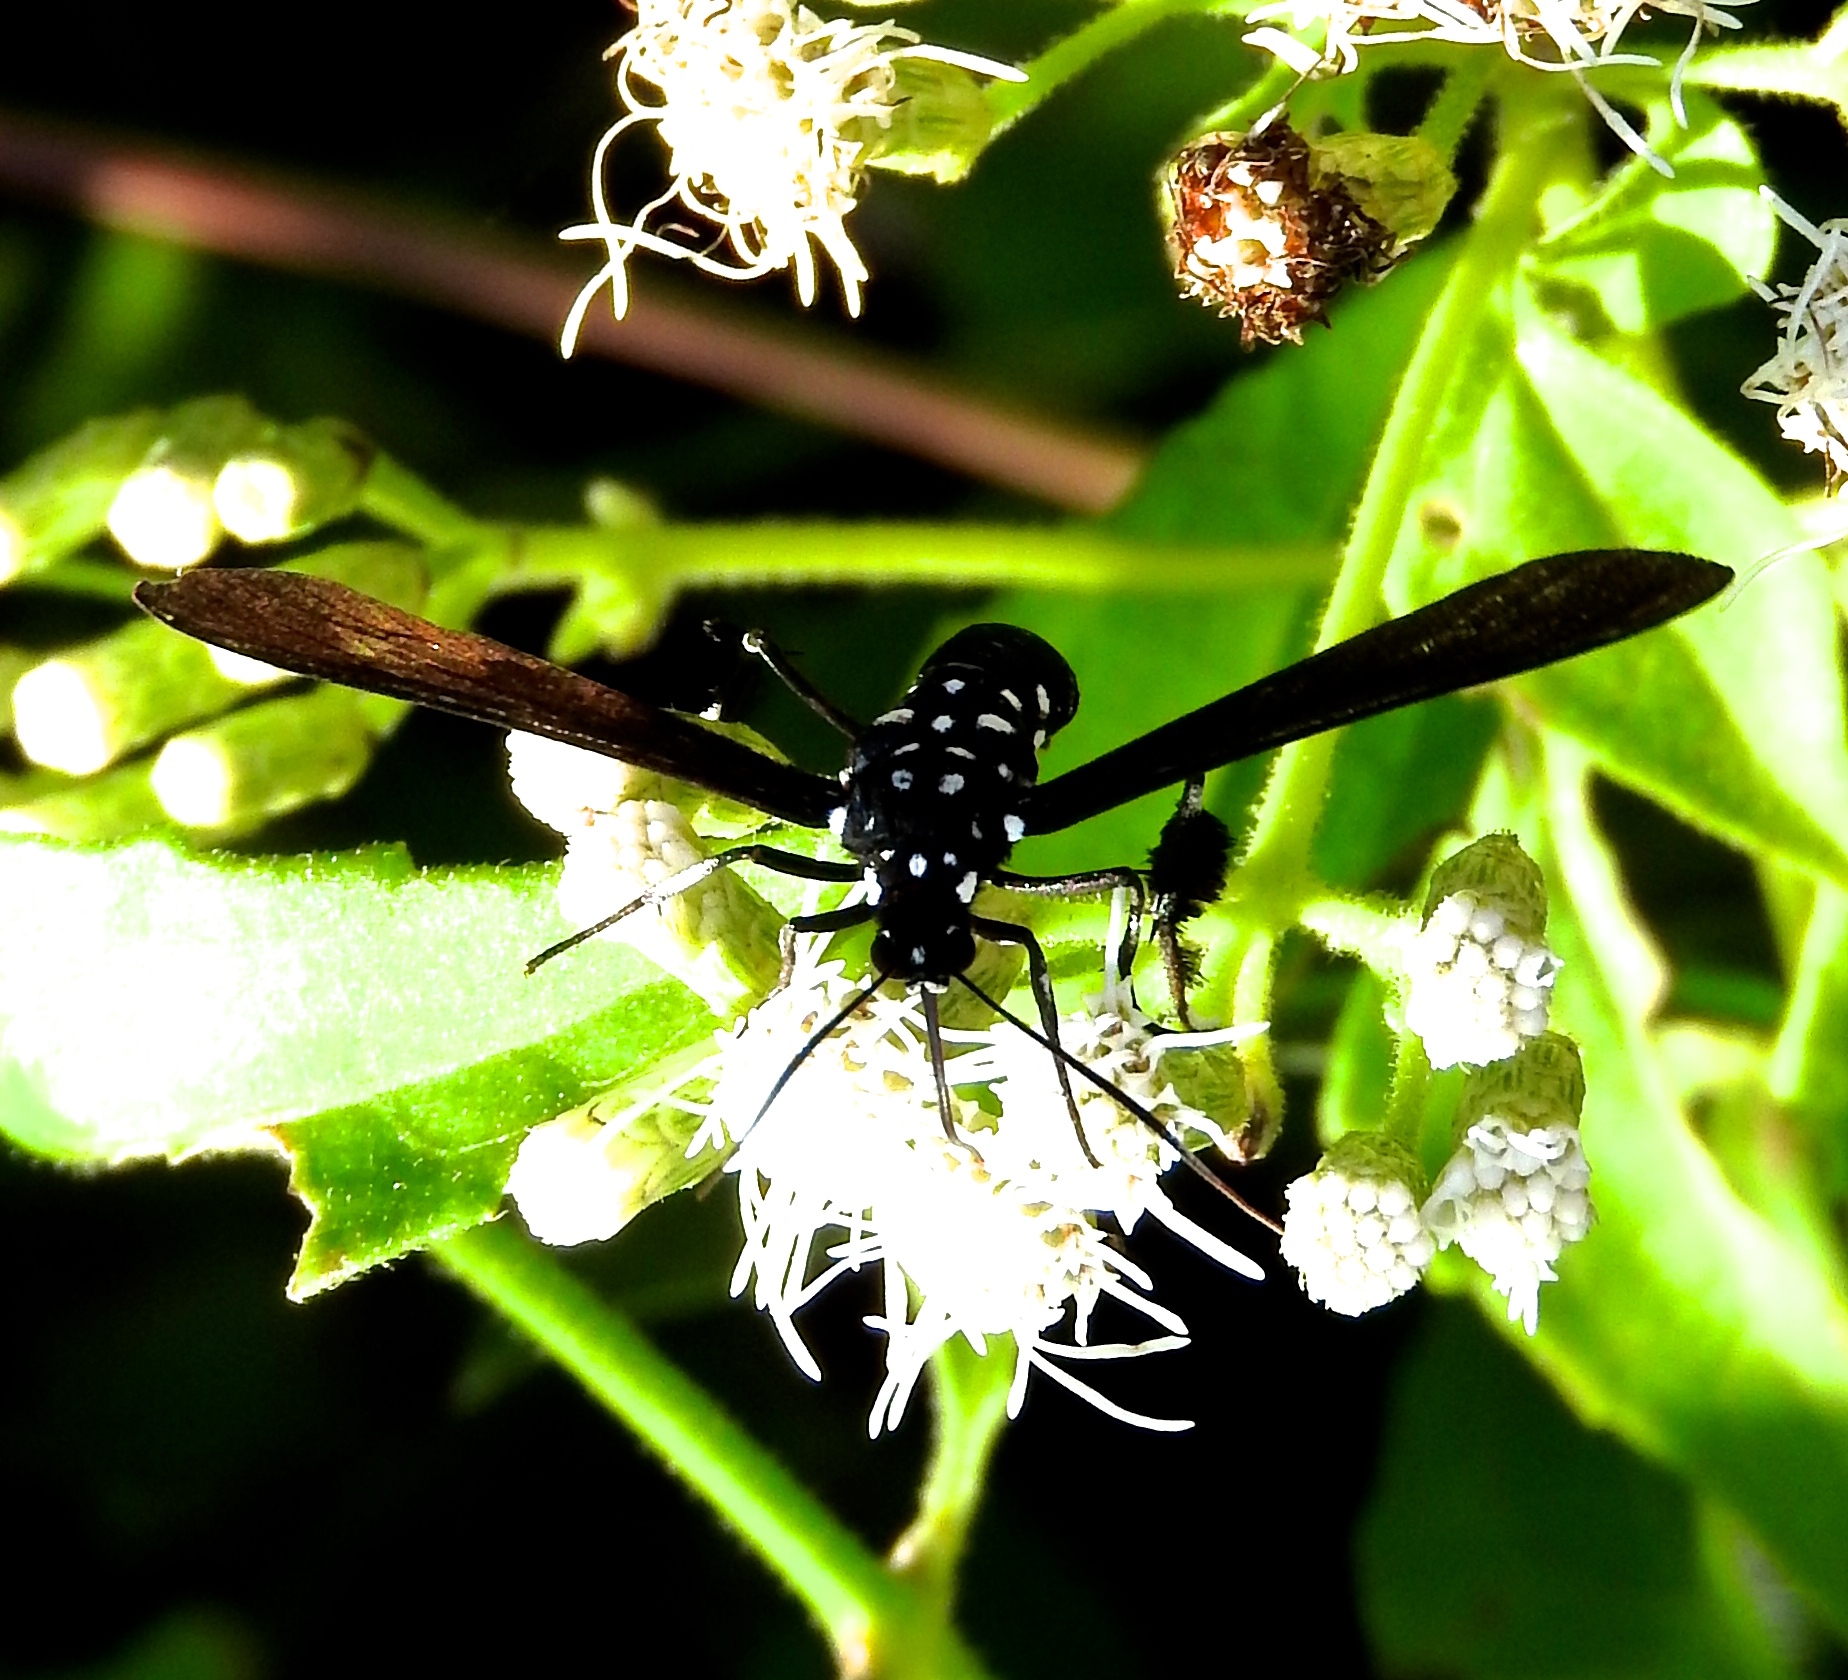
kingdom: Animalia
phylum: Arthropoda
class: Insecta
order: Lepidoptera
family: Erebidae
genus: Horama
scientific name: Horama plumipes
